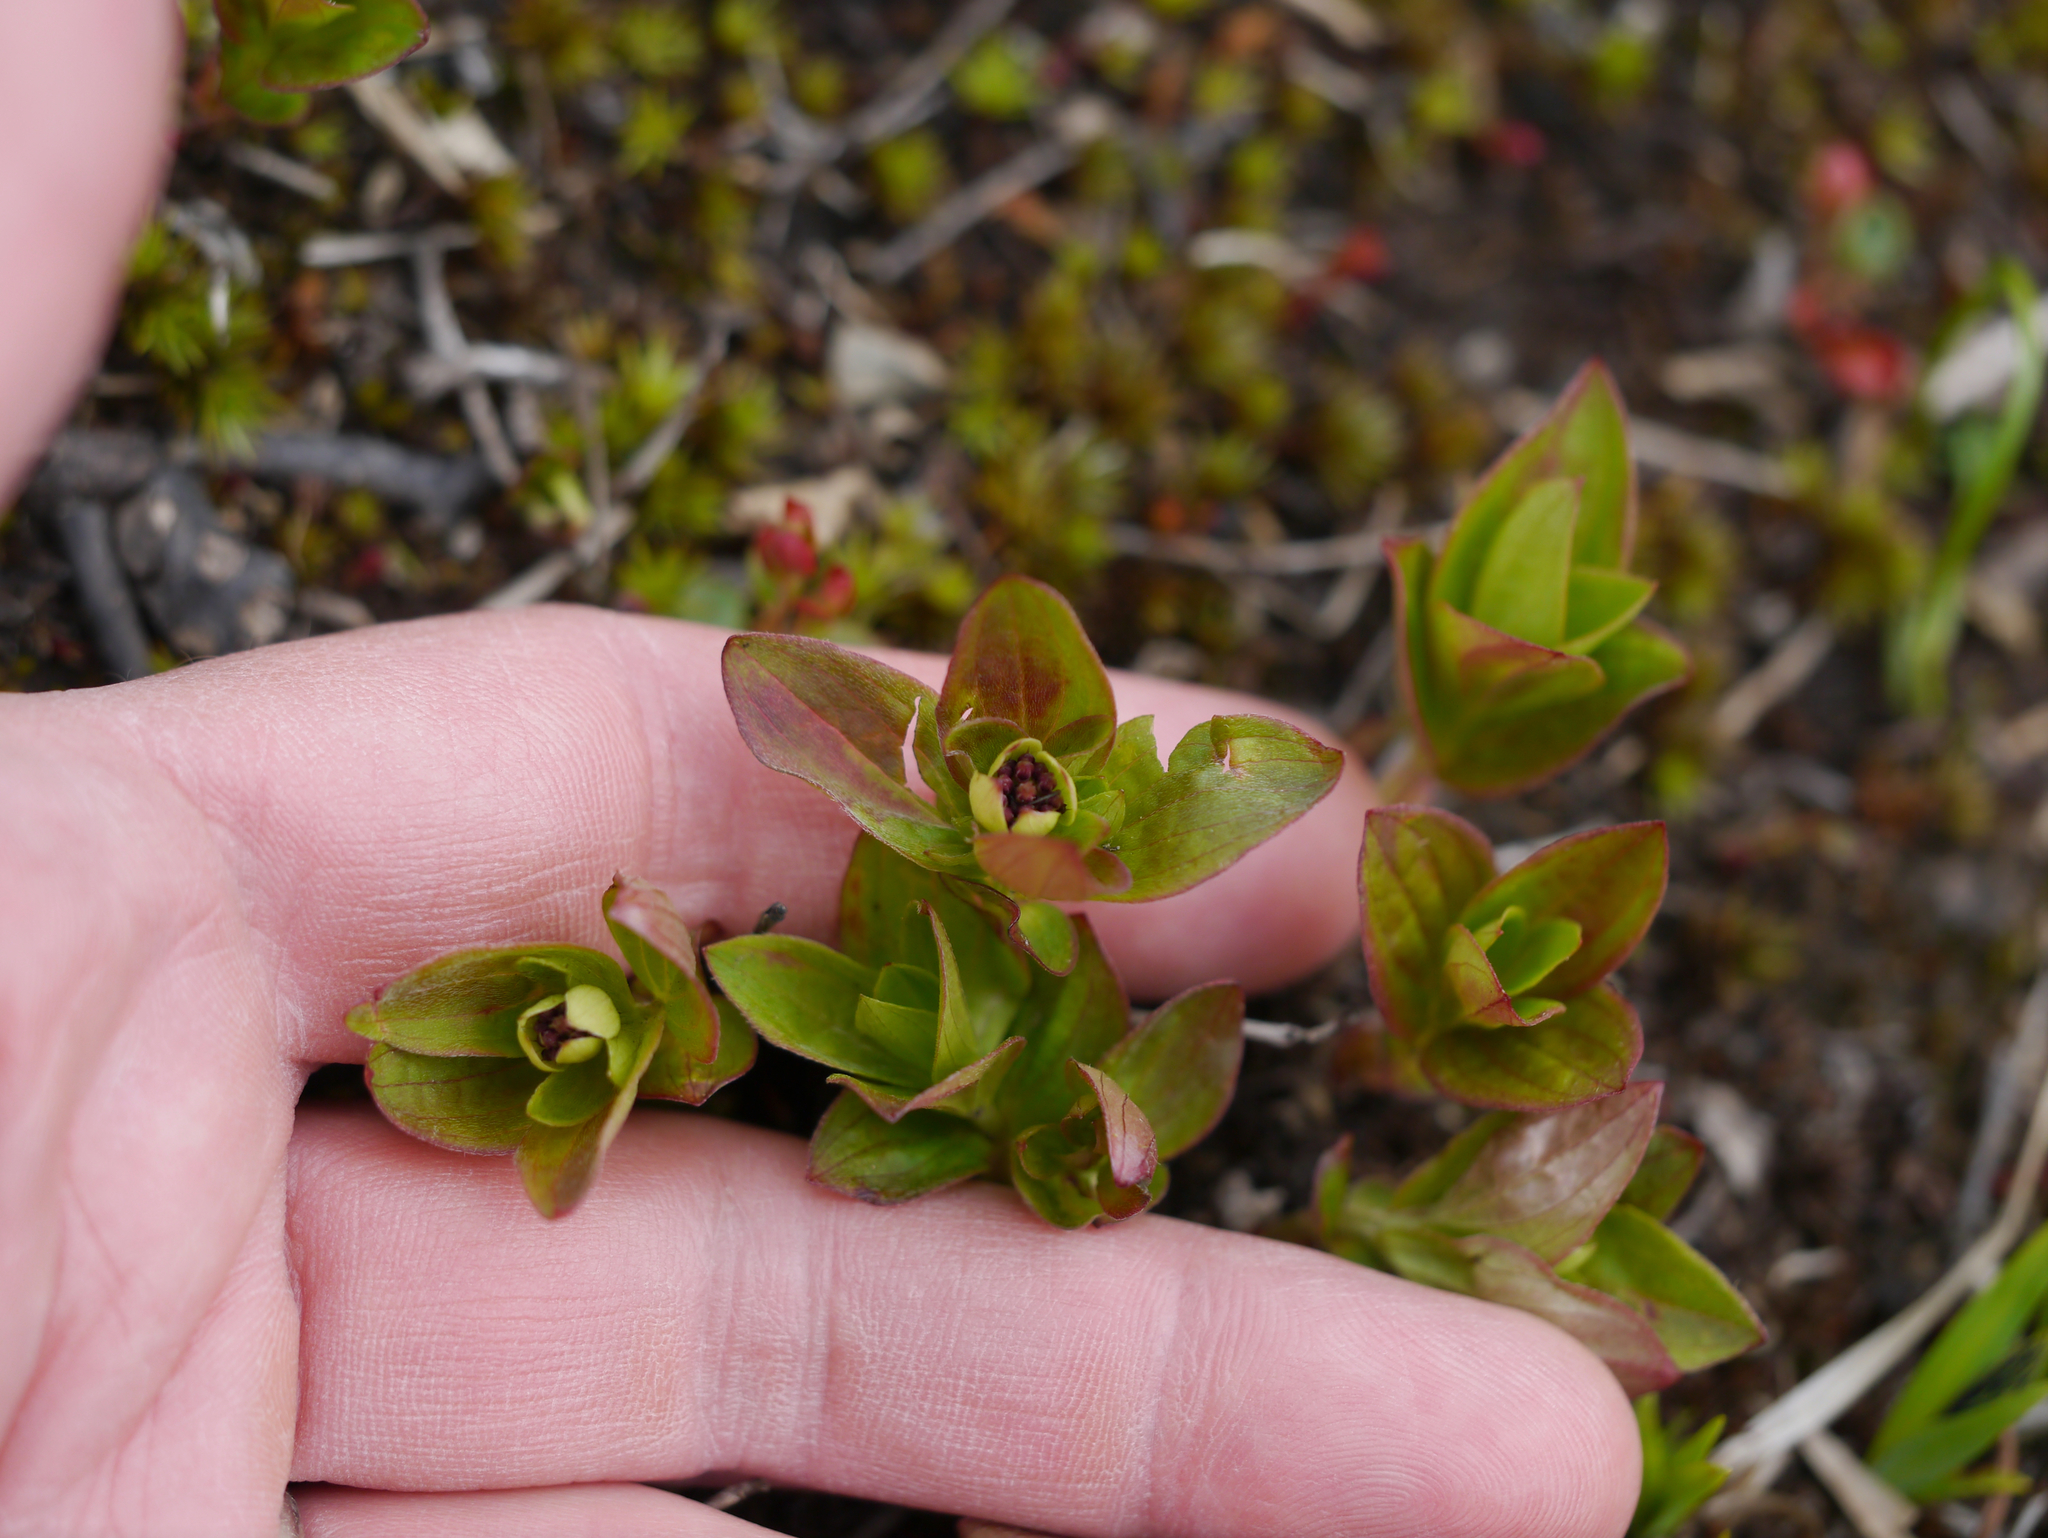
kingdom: Plantae
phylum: Tracheophyta
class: Magnoliopsida
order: Cornales
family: Cornaceae
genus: Cornus
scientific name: Cornus suecica
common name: Dwarf cornel
